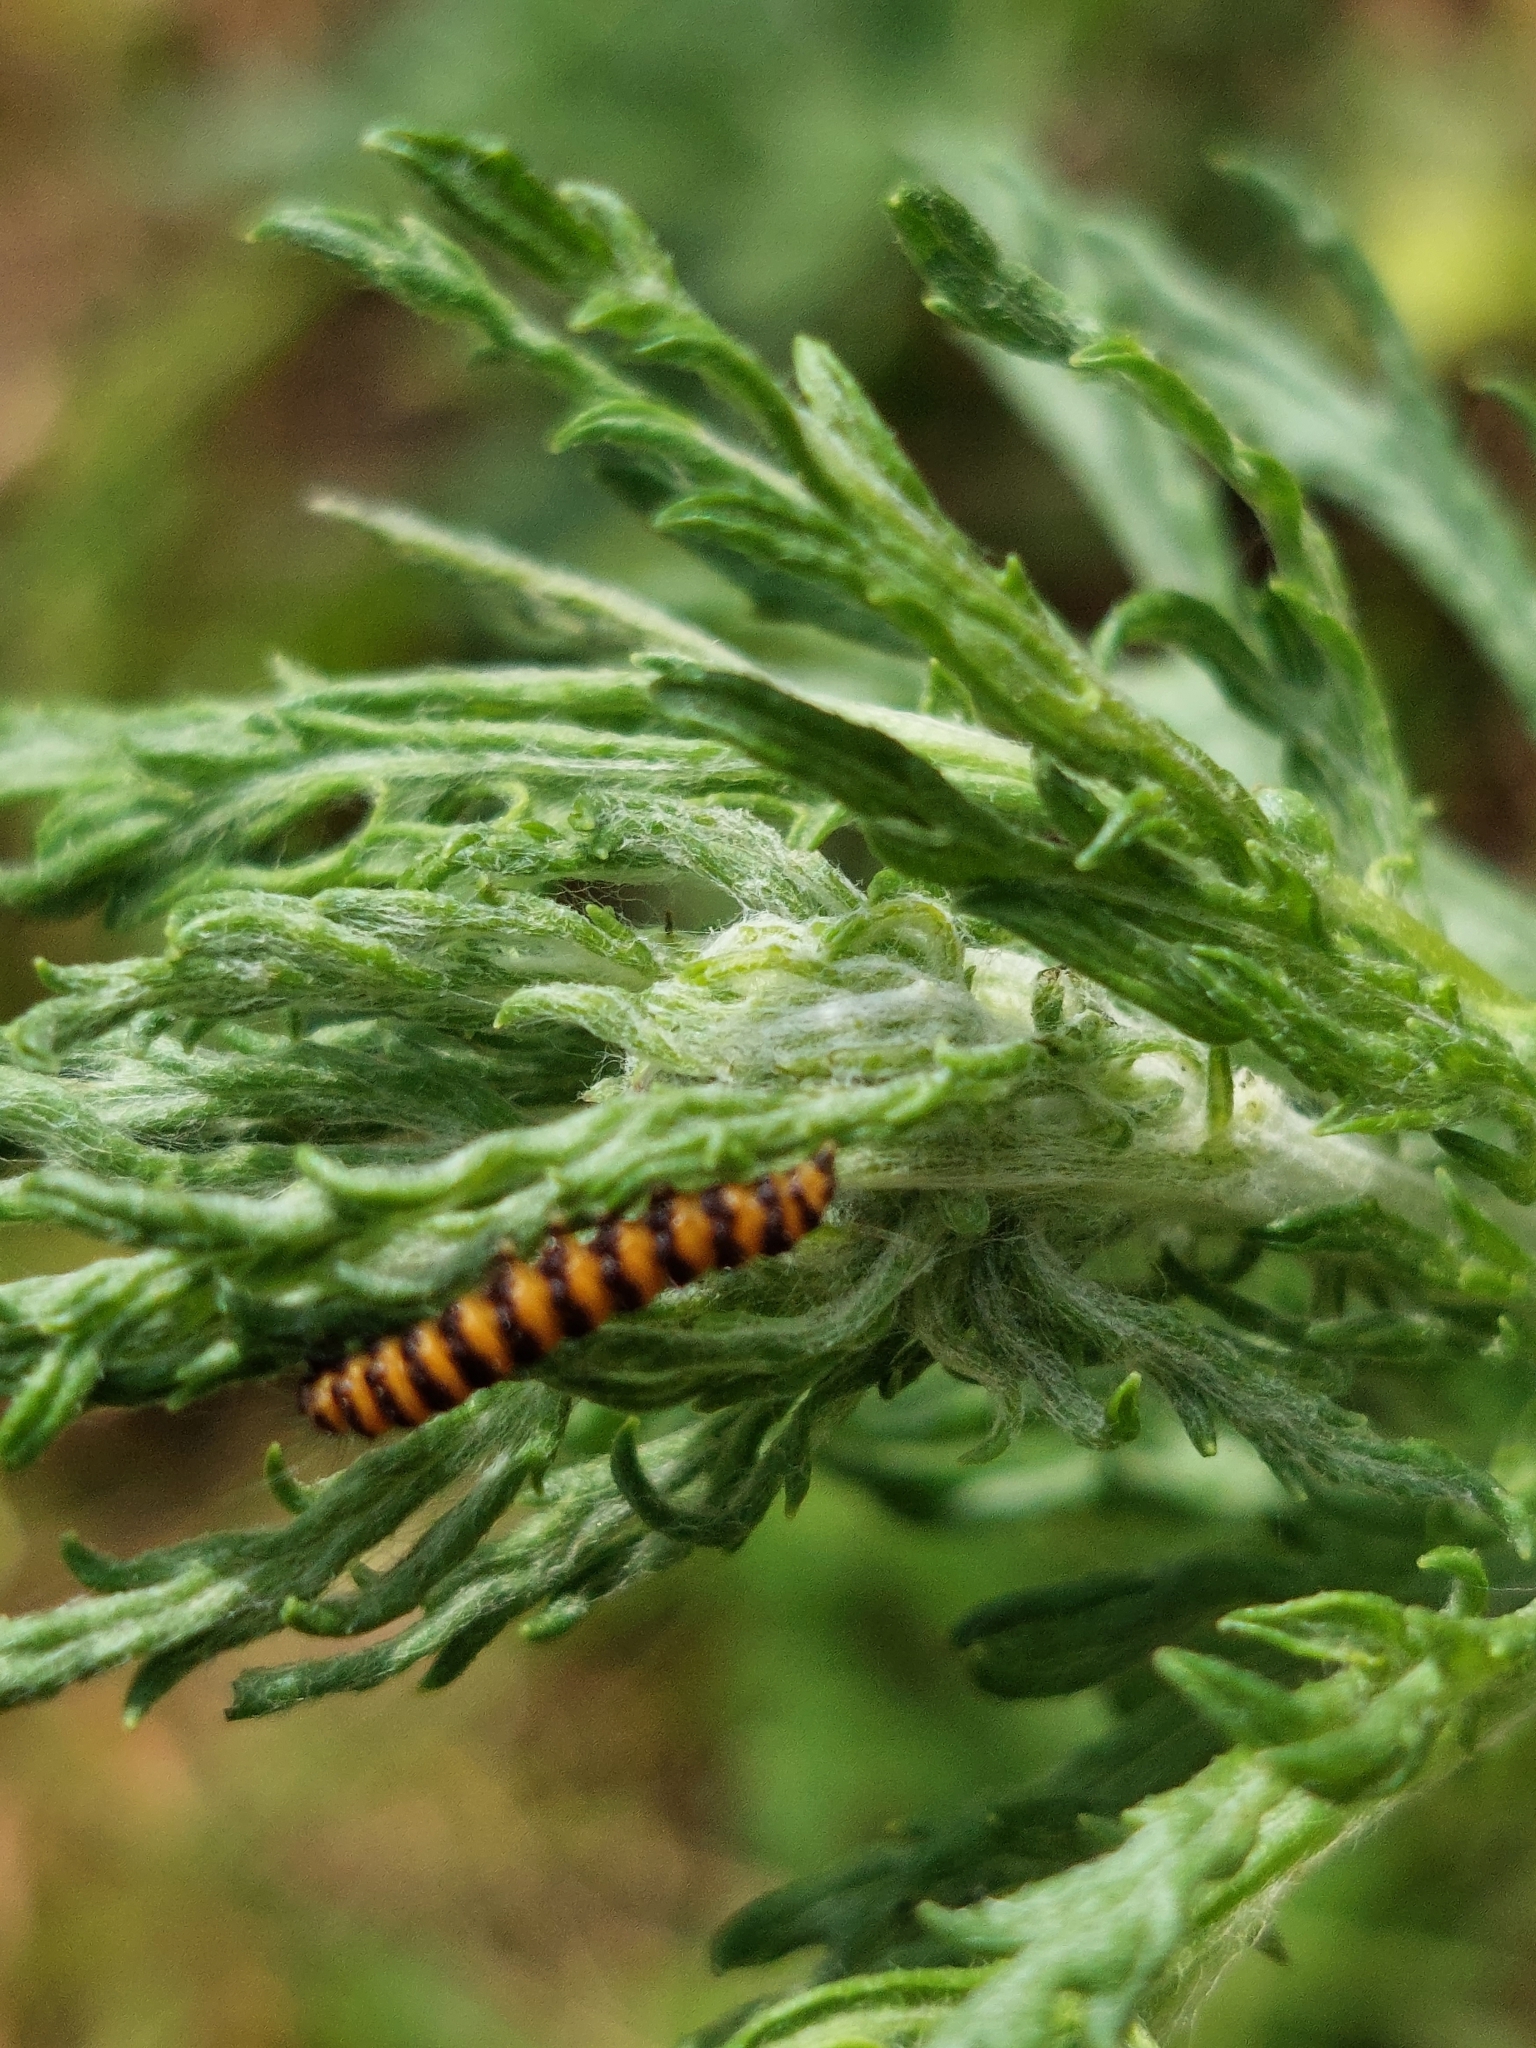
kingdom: Animalia
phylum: Arthropoda
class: Insecta
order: Lepidoptera
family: Erebidae
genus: Tyria
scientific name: Tyria jacobaeae
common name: Cinnabar
